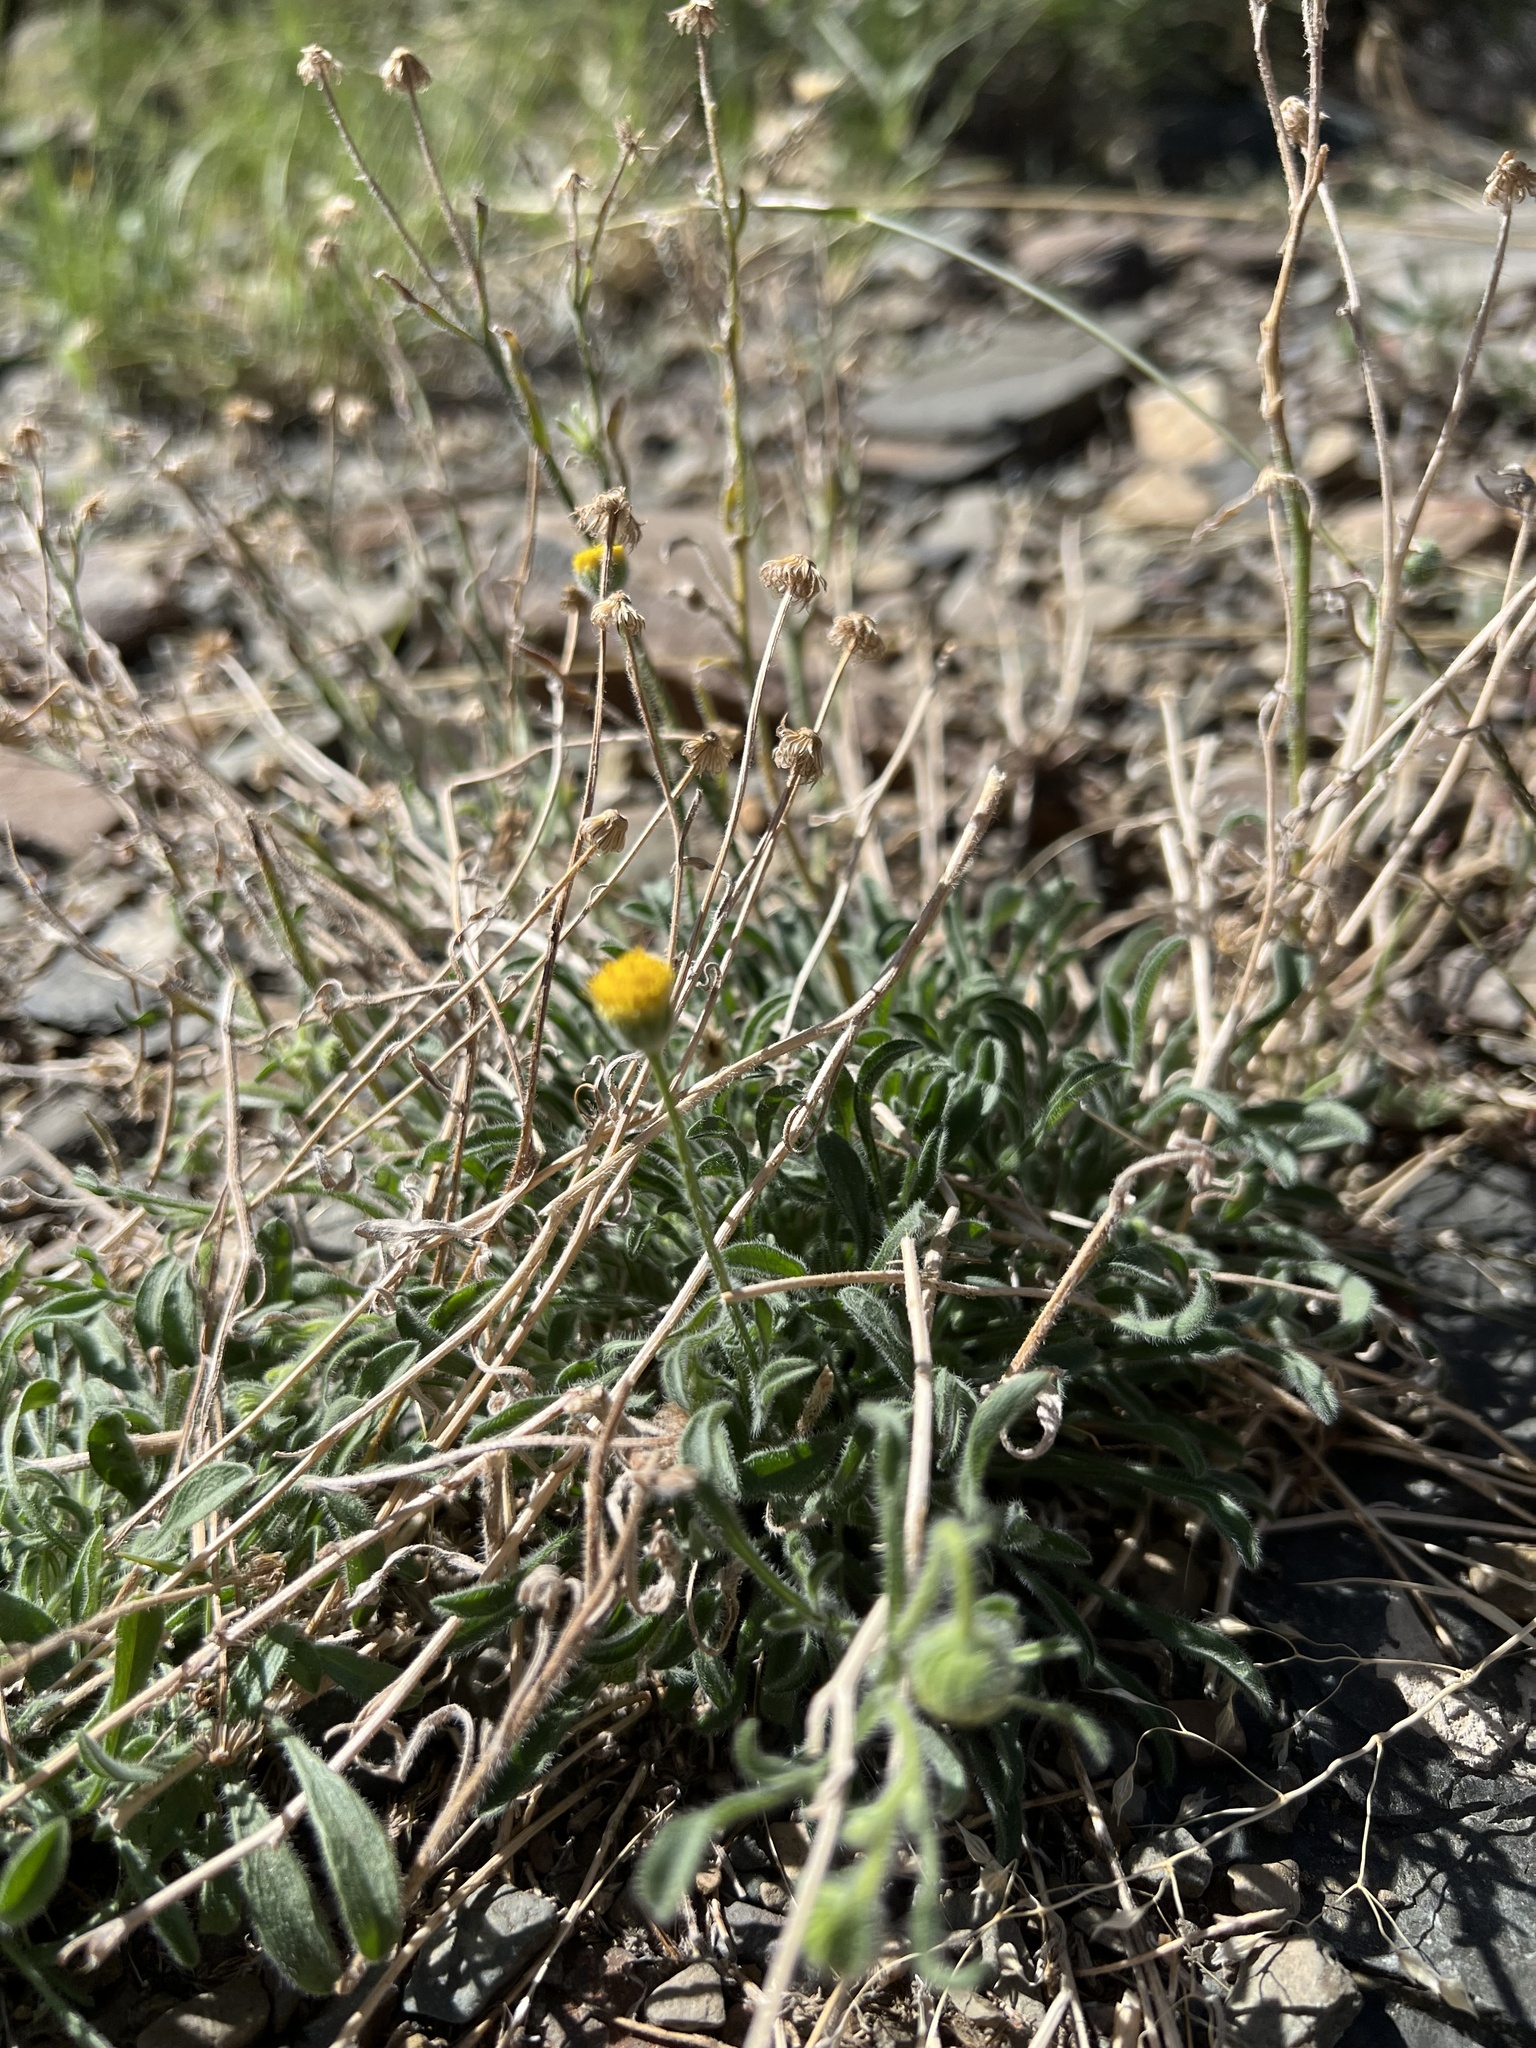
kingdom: Plantae
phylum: Tracheophyta
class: Magnoliopsida
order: Asterales
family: Asteraceae
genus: Erigeron
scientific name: Erigeron aphanactis
